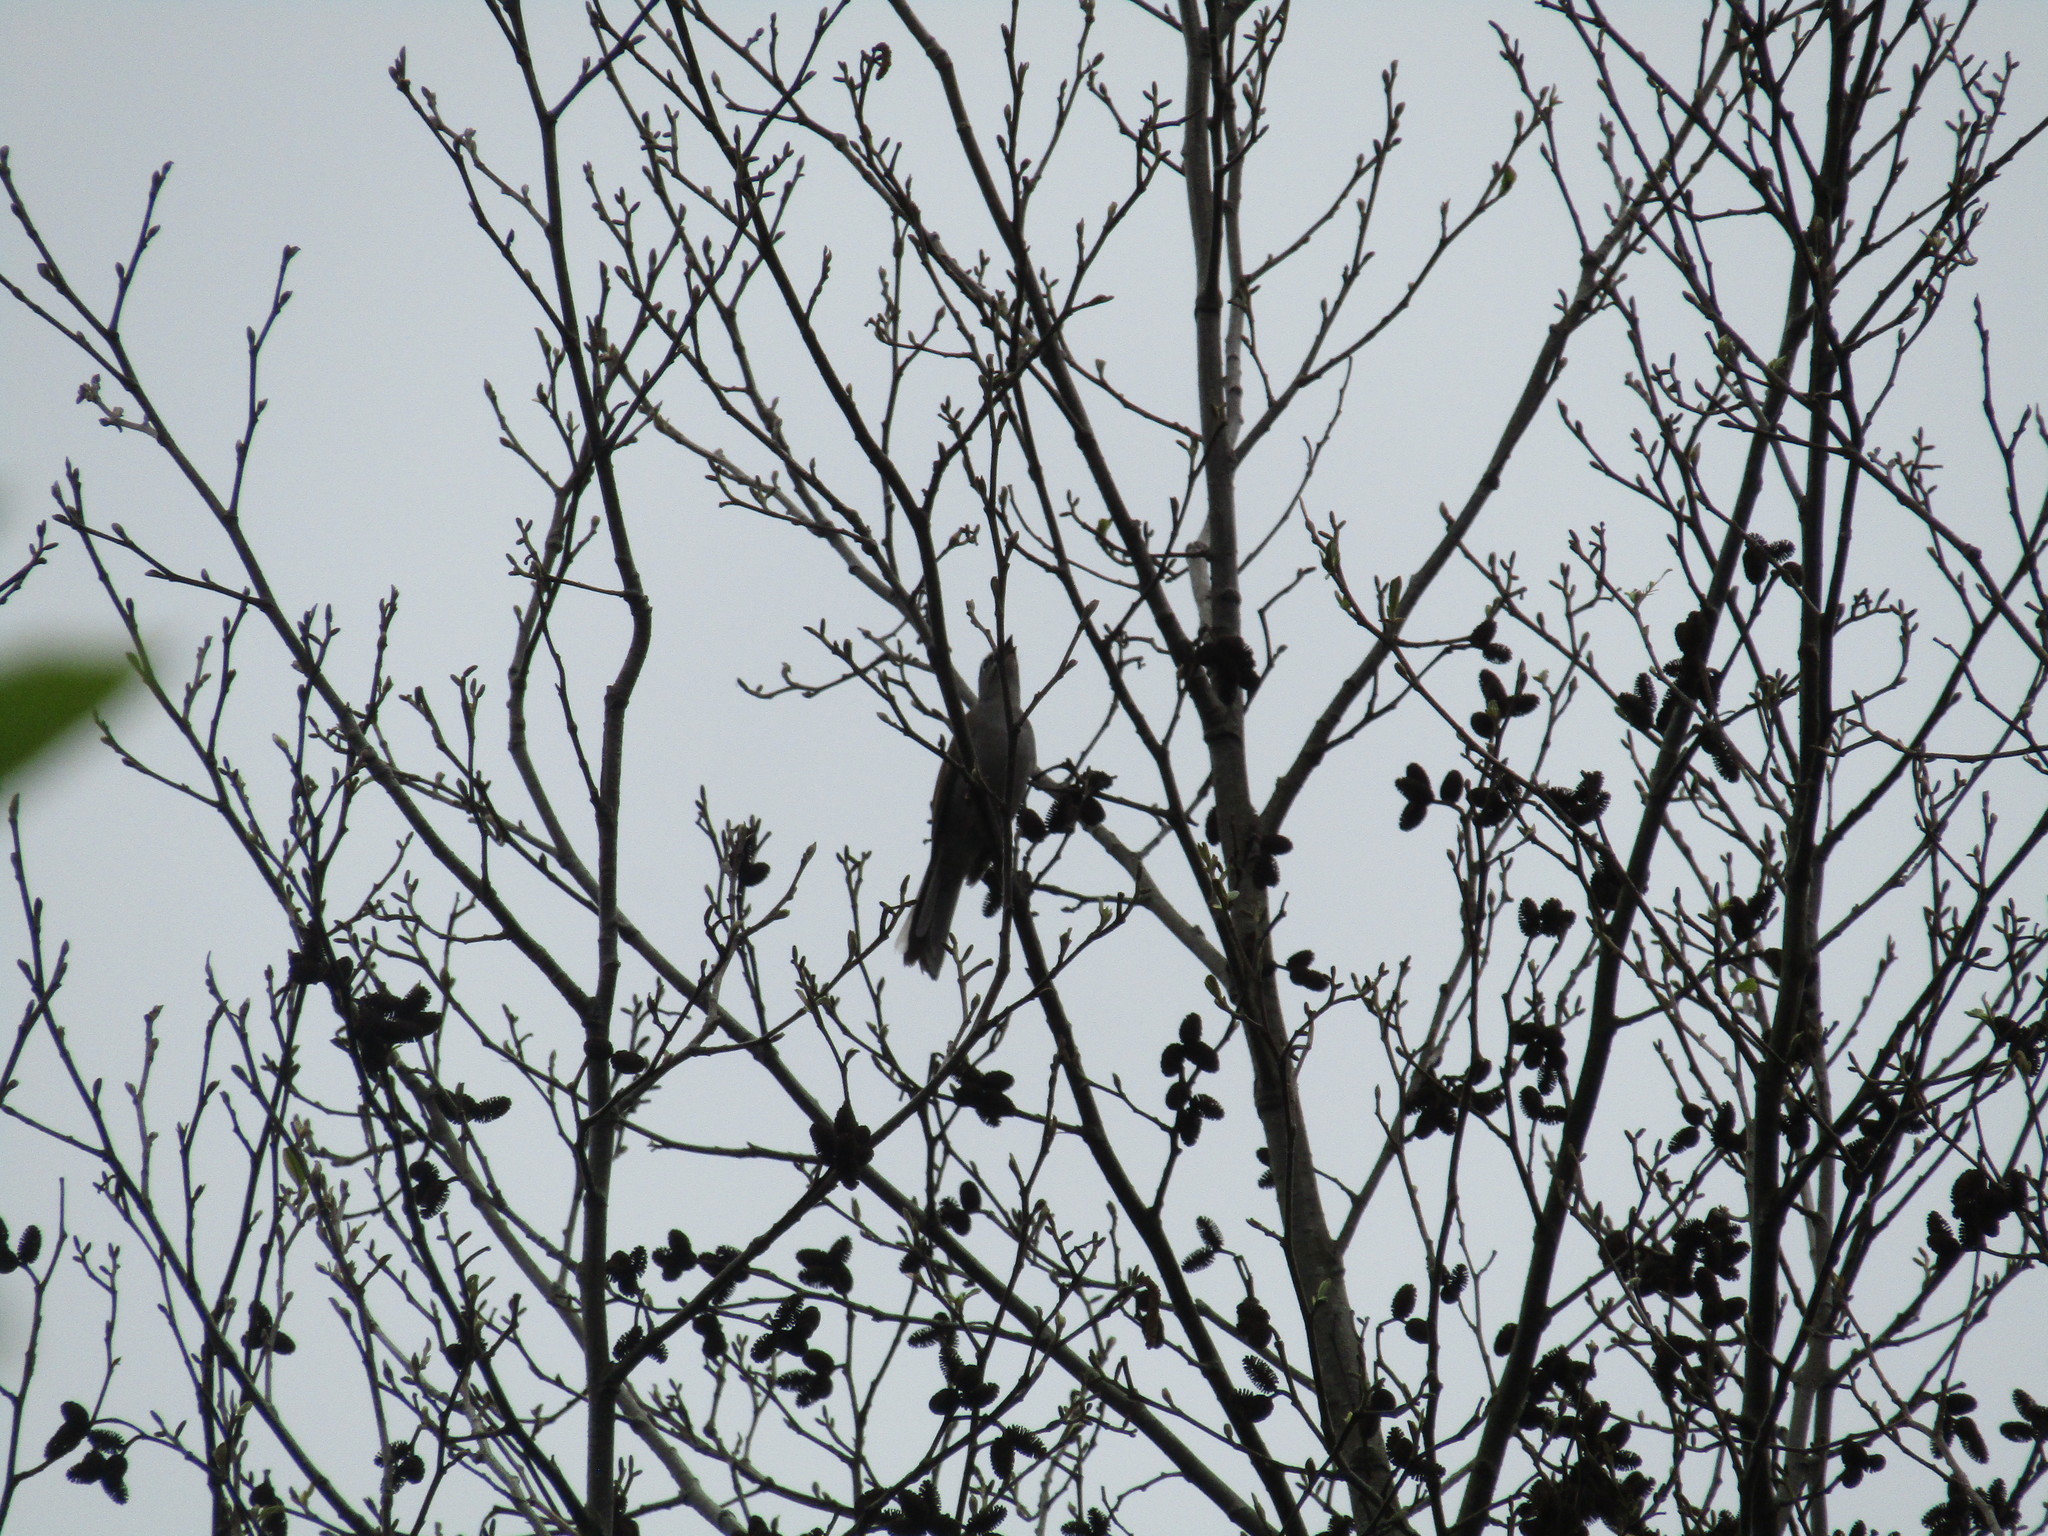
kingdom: Animalia
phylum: Chordata
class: Aves
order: Passeriformes
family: Turdidae
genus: Myadestes
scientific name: Myadestes occidentalis
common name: Brown-backed solitaire
